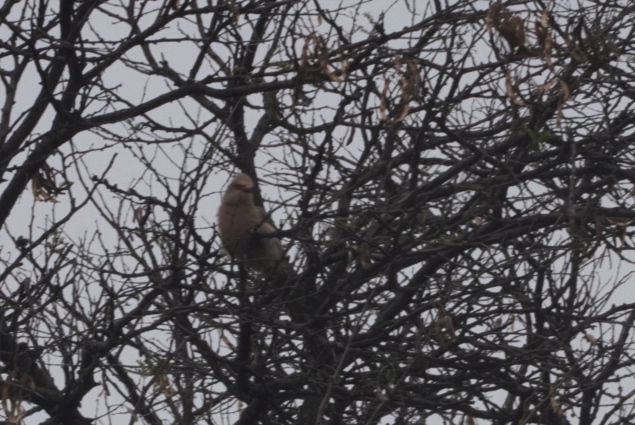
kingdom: Animalia
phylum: Chordata
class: Aves
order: Coliiformes
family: Coliidae
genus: Urocolius
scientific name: Urocolius indicus
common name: Red-faced mousebird
